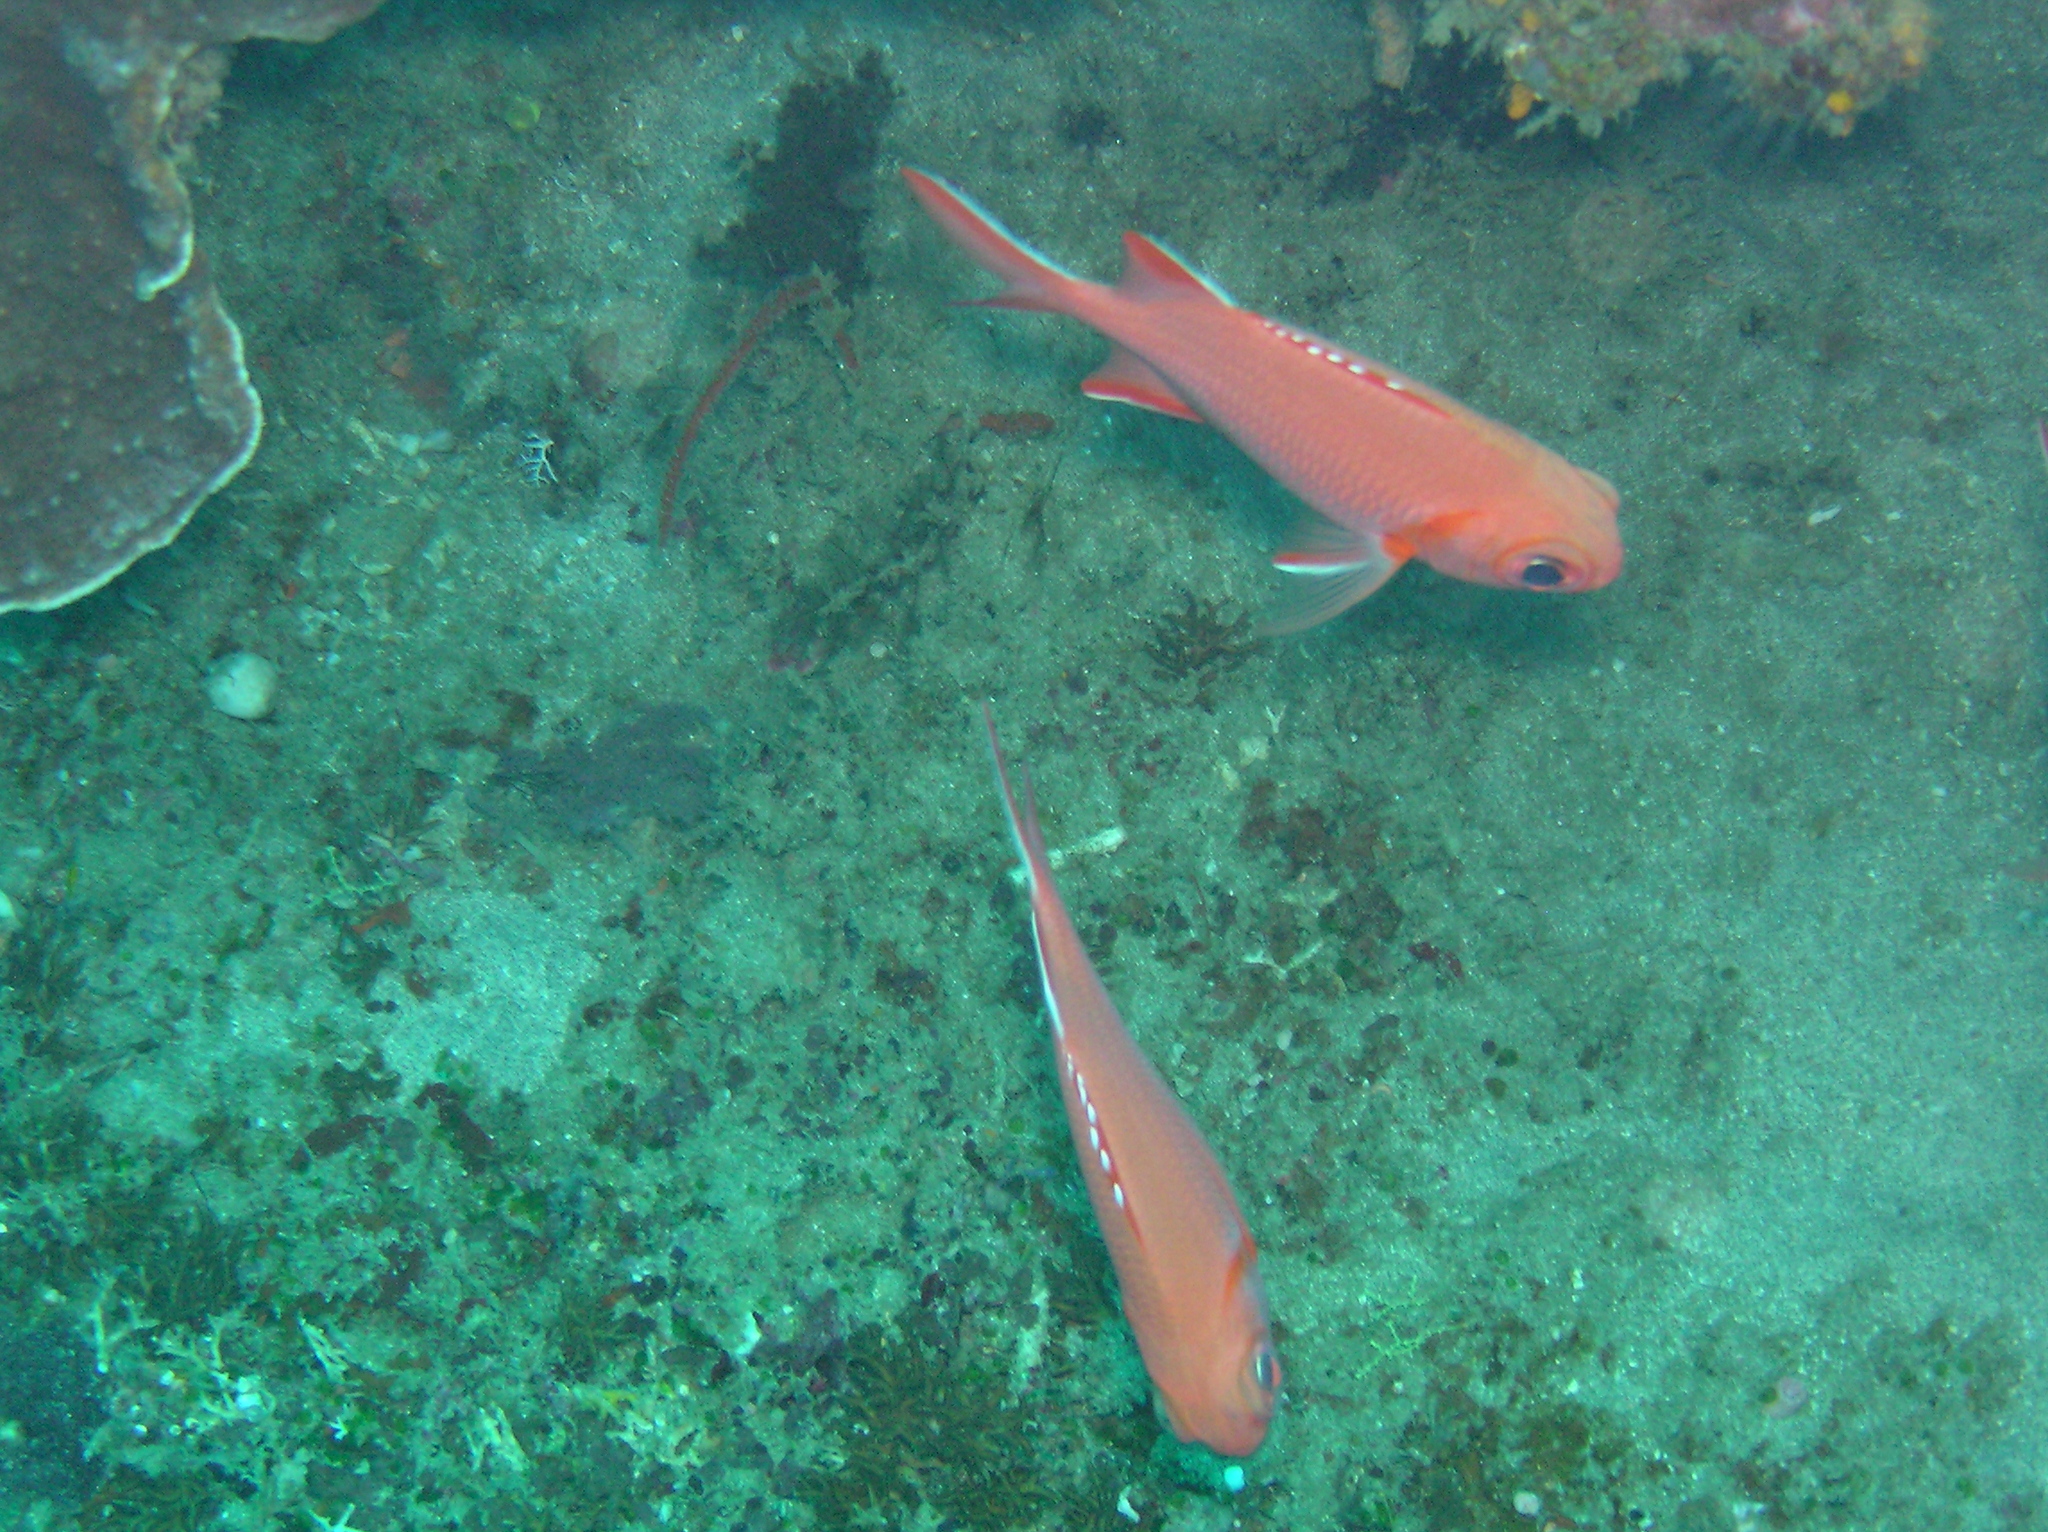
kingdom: Animalia
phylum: Chordata
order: Beryciformes
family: Holocentridae
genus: Myripristis
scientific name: Myripristis vittata
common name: Immaculate squirrelfish
